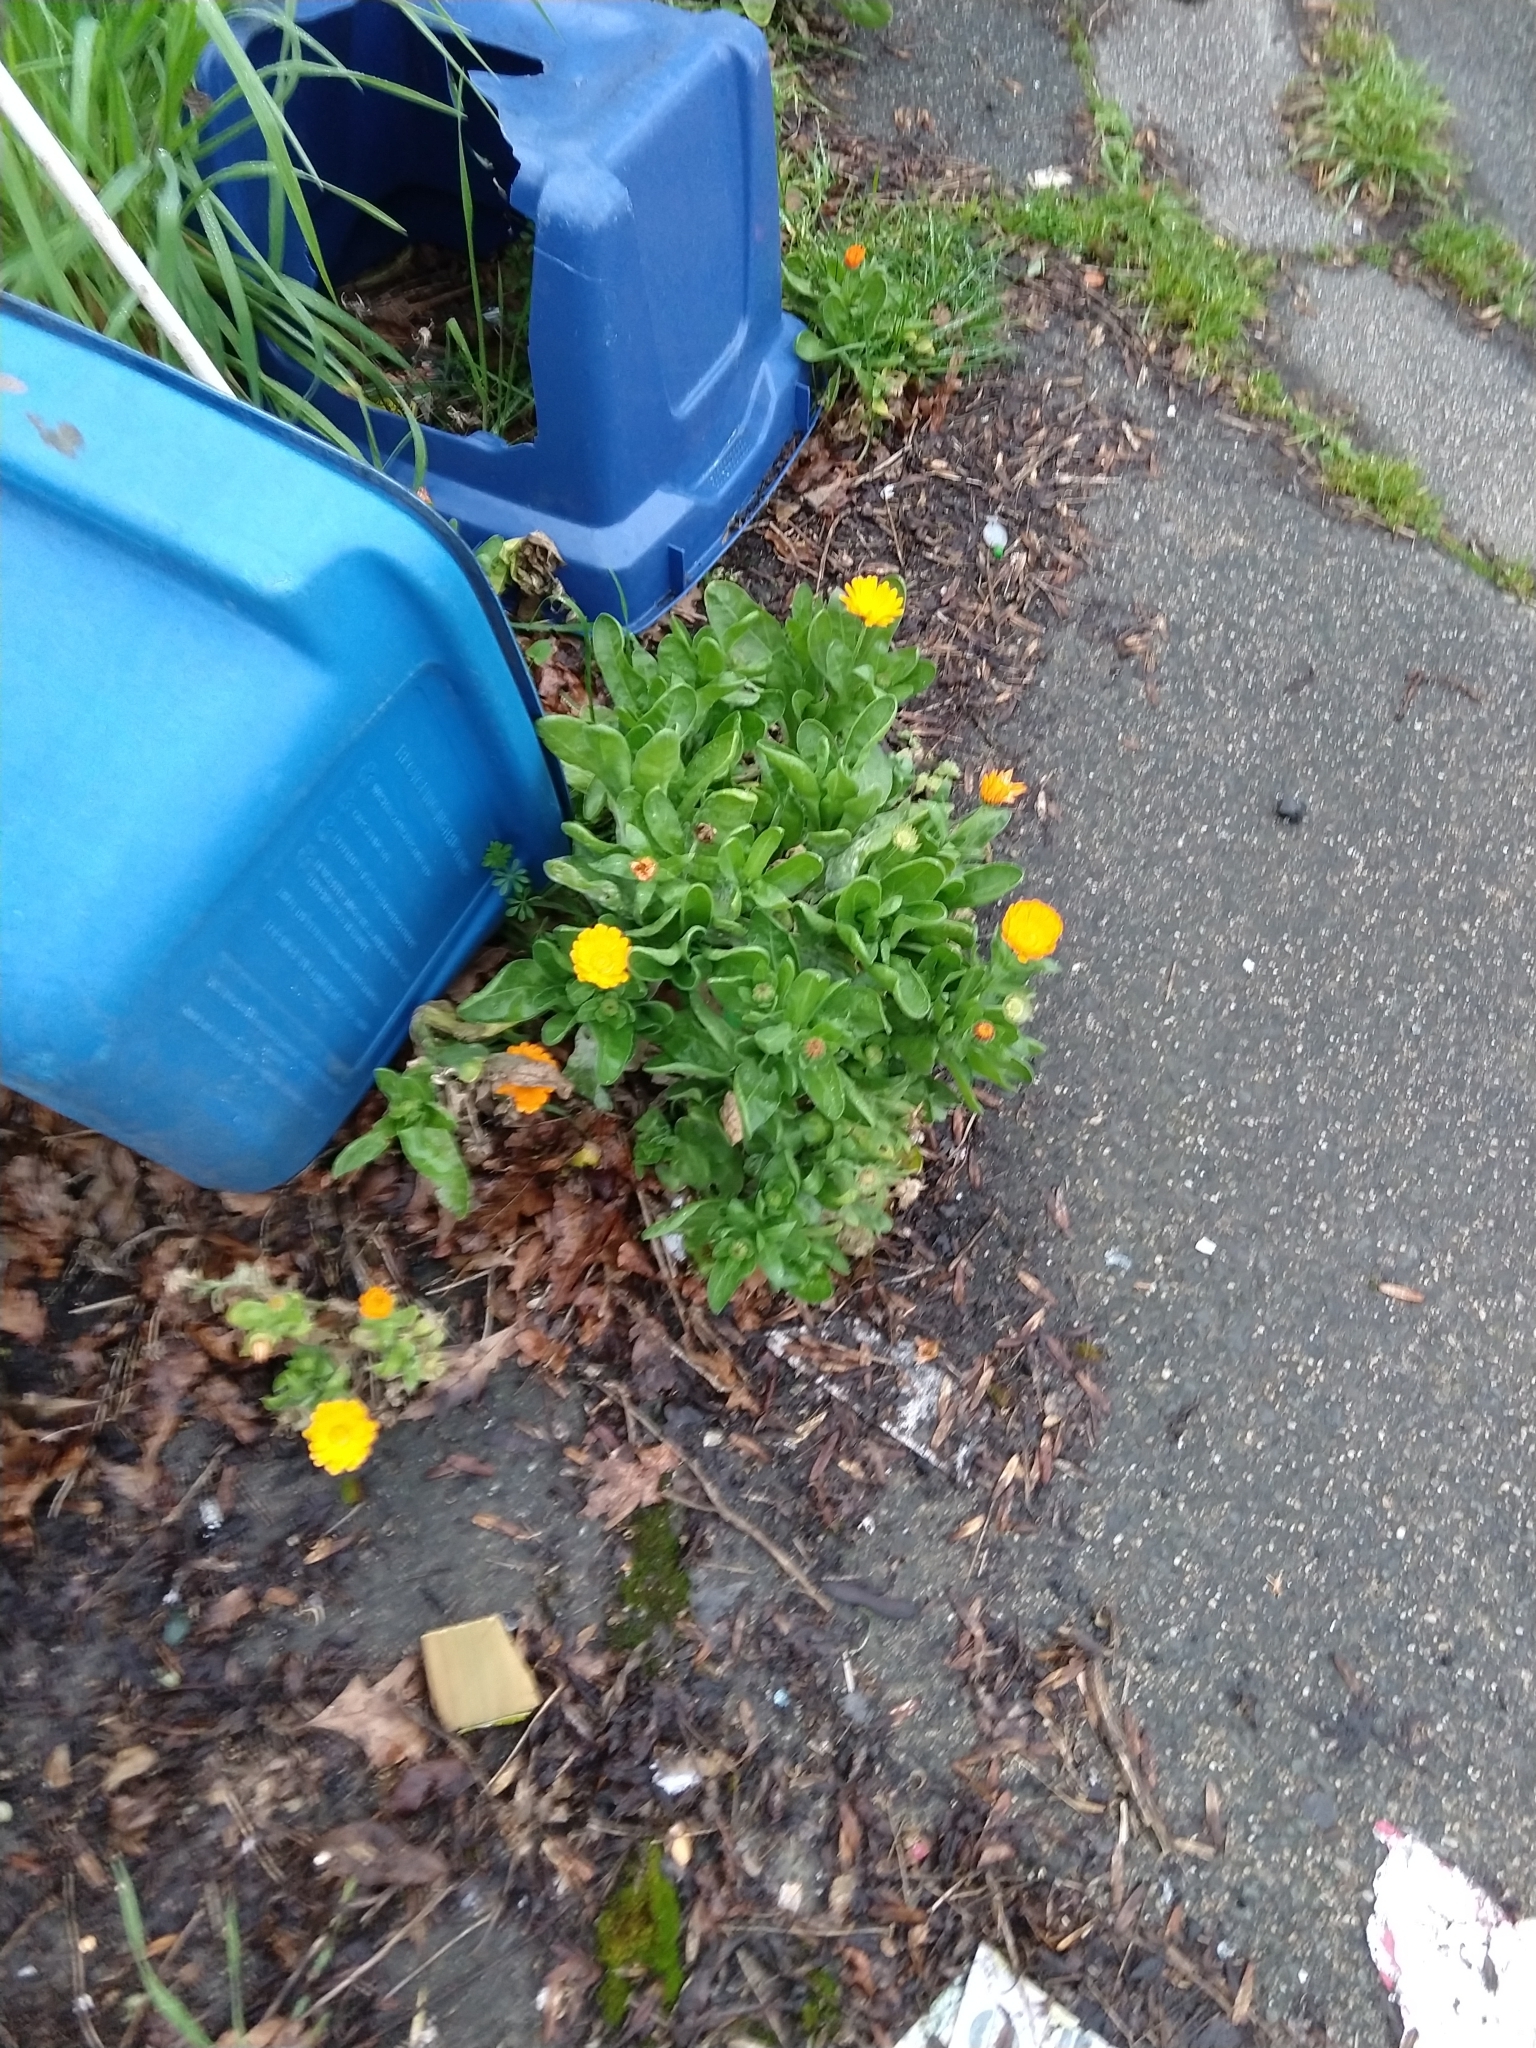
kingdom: Plantae
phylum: Tracheophyta
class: Magnoliopsida
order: Asterales
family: Asteraceae
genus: Calendula
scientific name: Calendula officinalis
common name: Pot marigold
